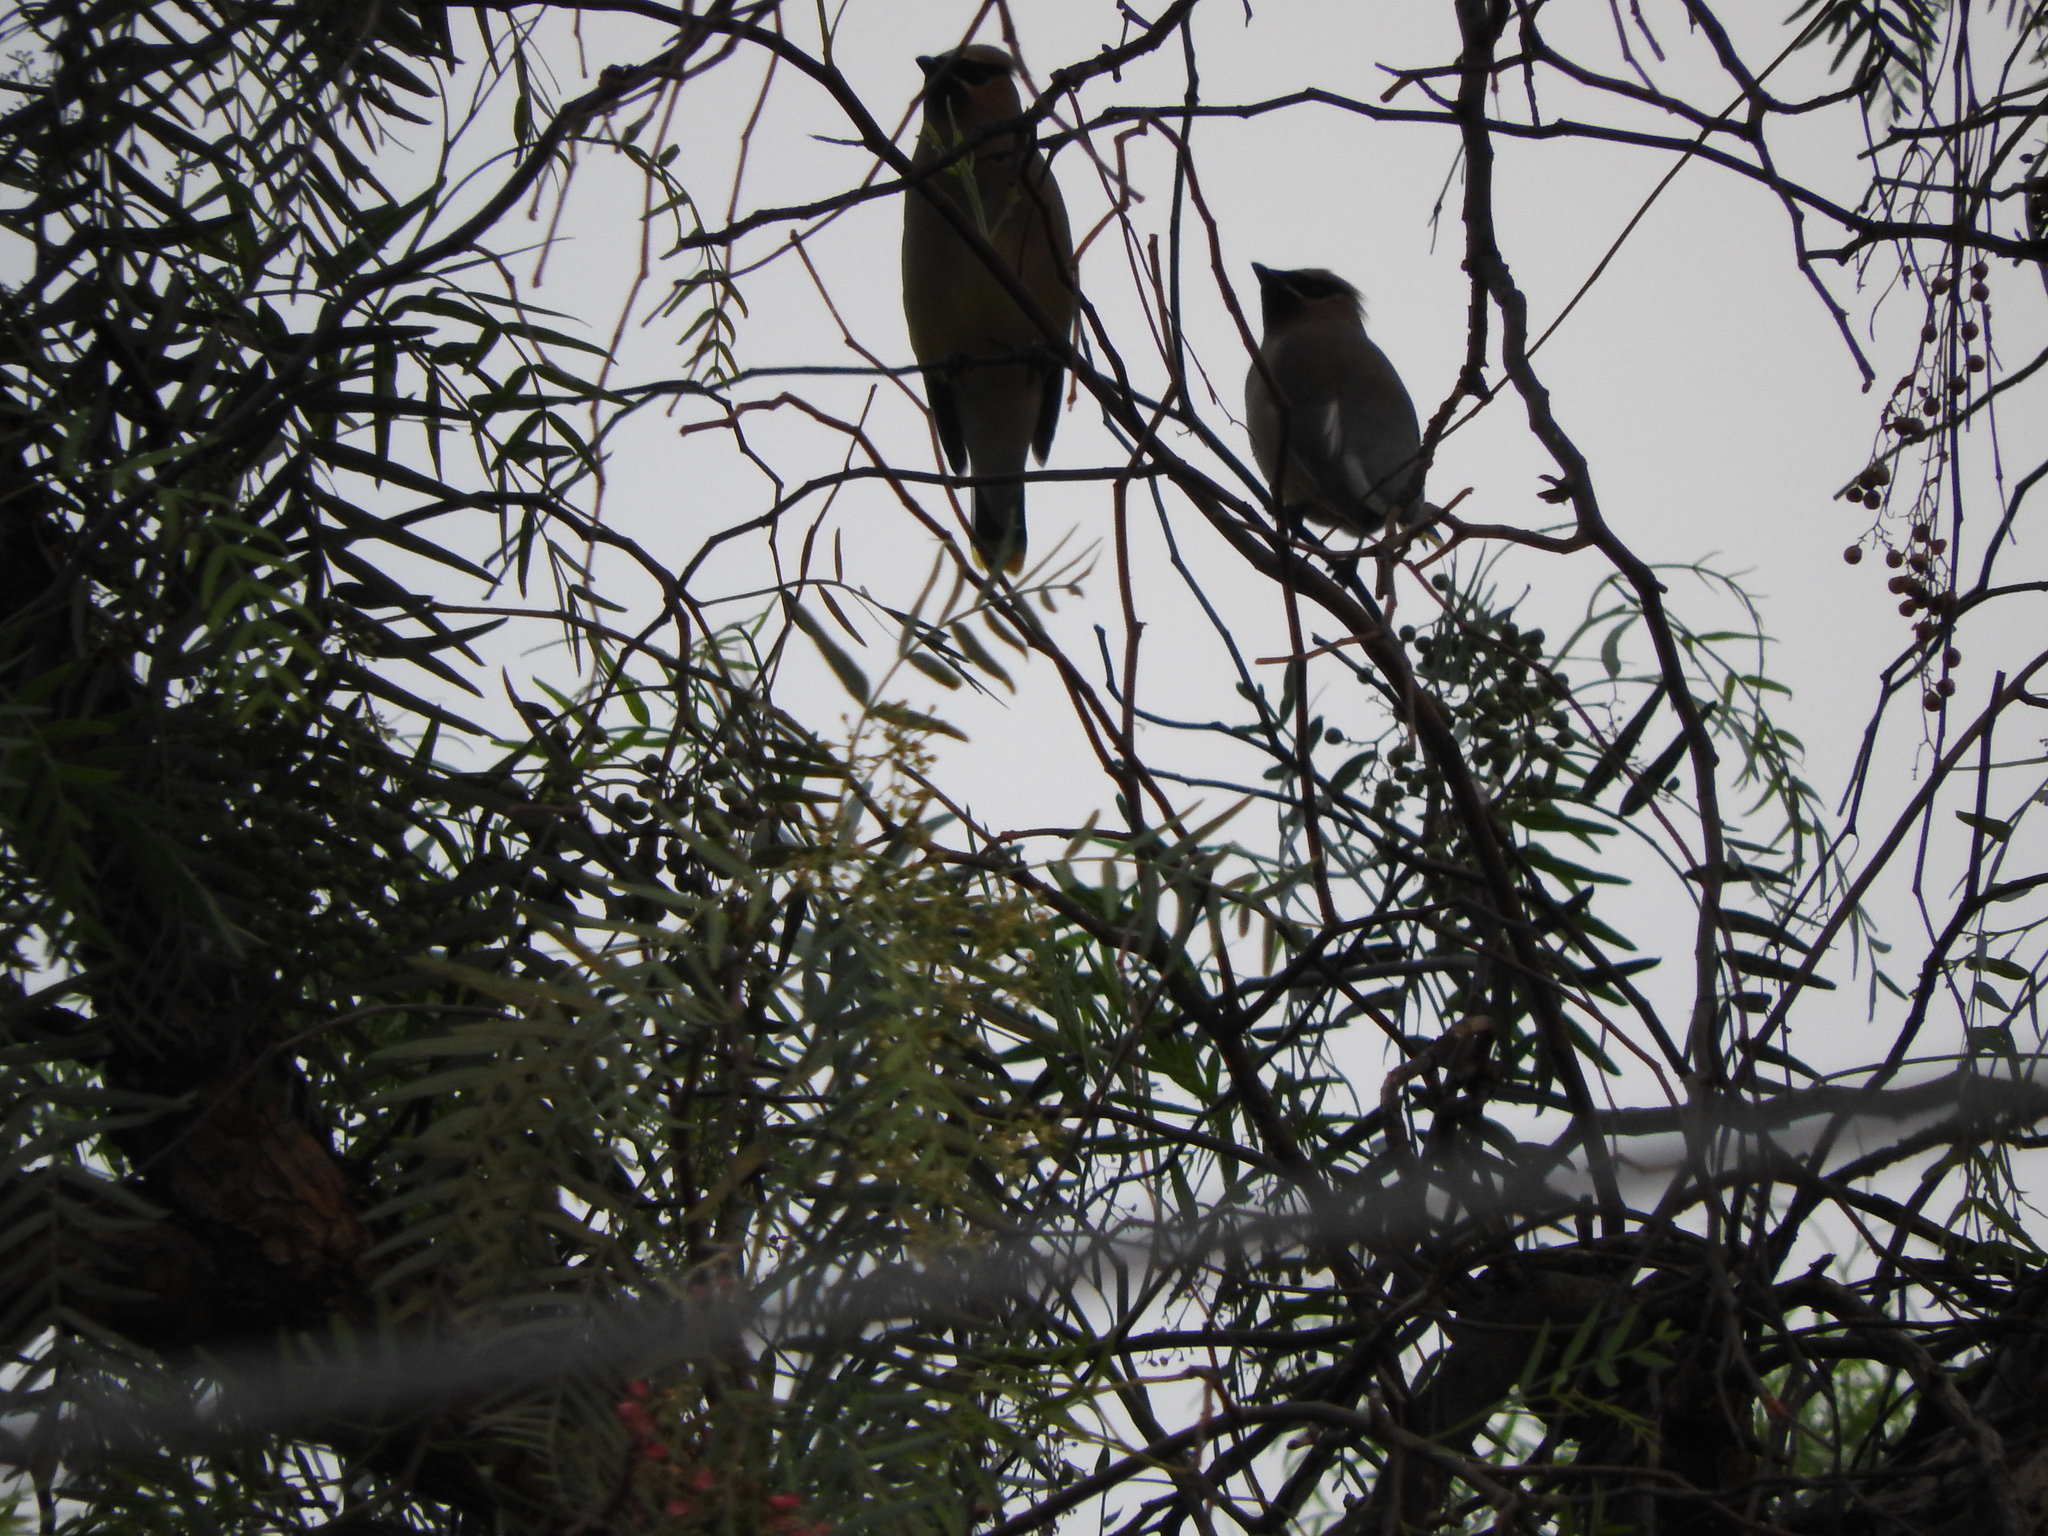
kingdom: Animalia
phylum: Chordata
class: Aves
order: Passeriformes
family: Bombycillidae
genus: Bombycilla
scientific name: Bombycilla cedrorum
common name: Cedar waxwing
